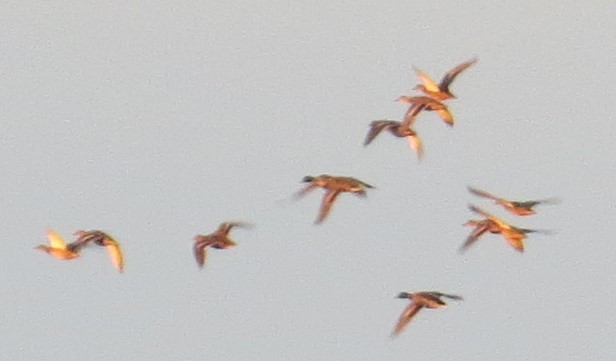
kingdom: Animalia
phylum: Chordata
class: Aves
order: Anseriformes
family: Anatidae
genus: Anas
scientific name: Anas platyrhynchos
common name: Mallard
